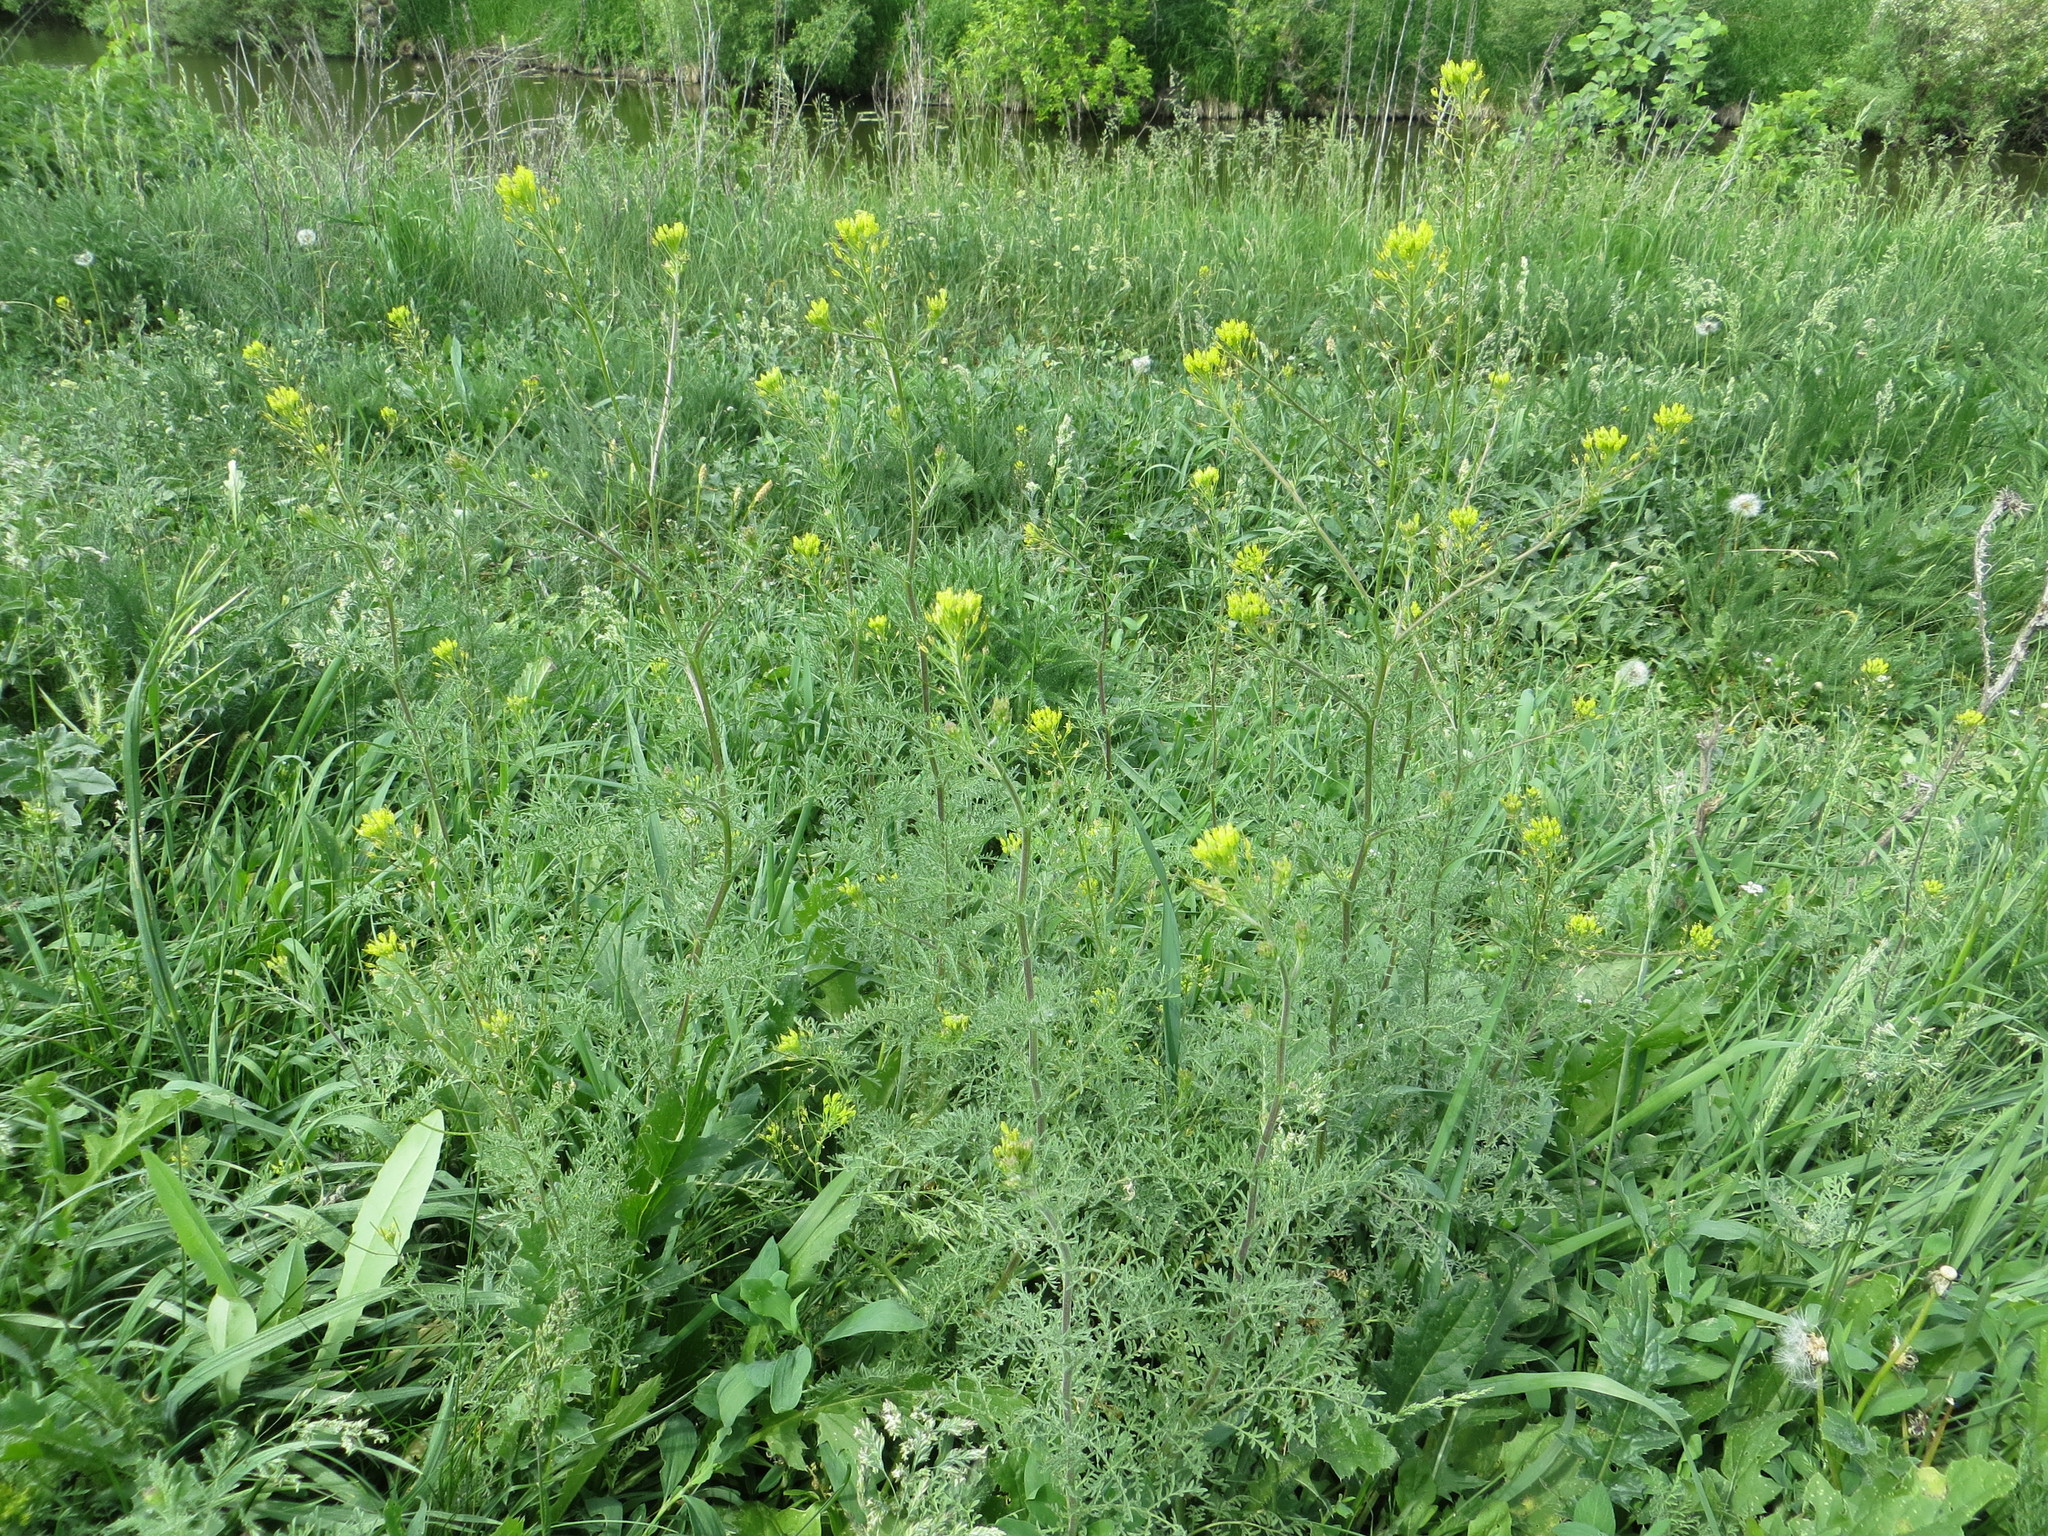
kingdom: Plantae
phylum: Tracheophyta
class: Magnoliopsida
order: Brassicales
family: Brassicaceae
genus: Descurainia
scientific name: Descurainia sophia
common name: Flixweed
